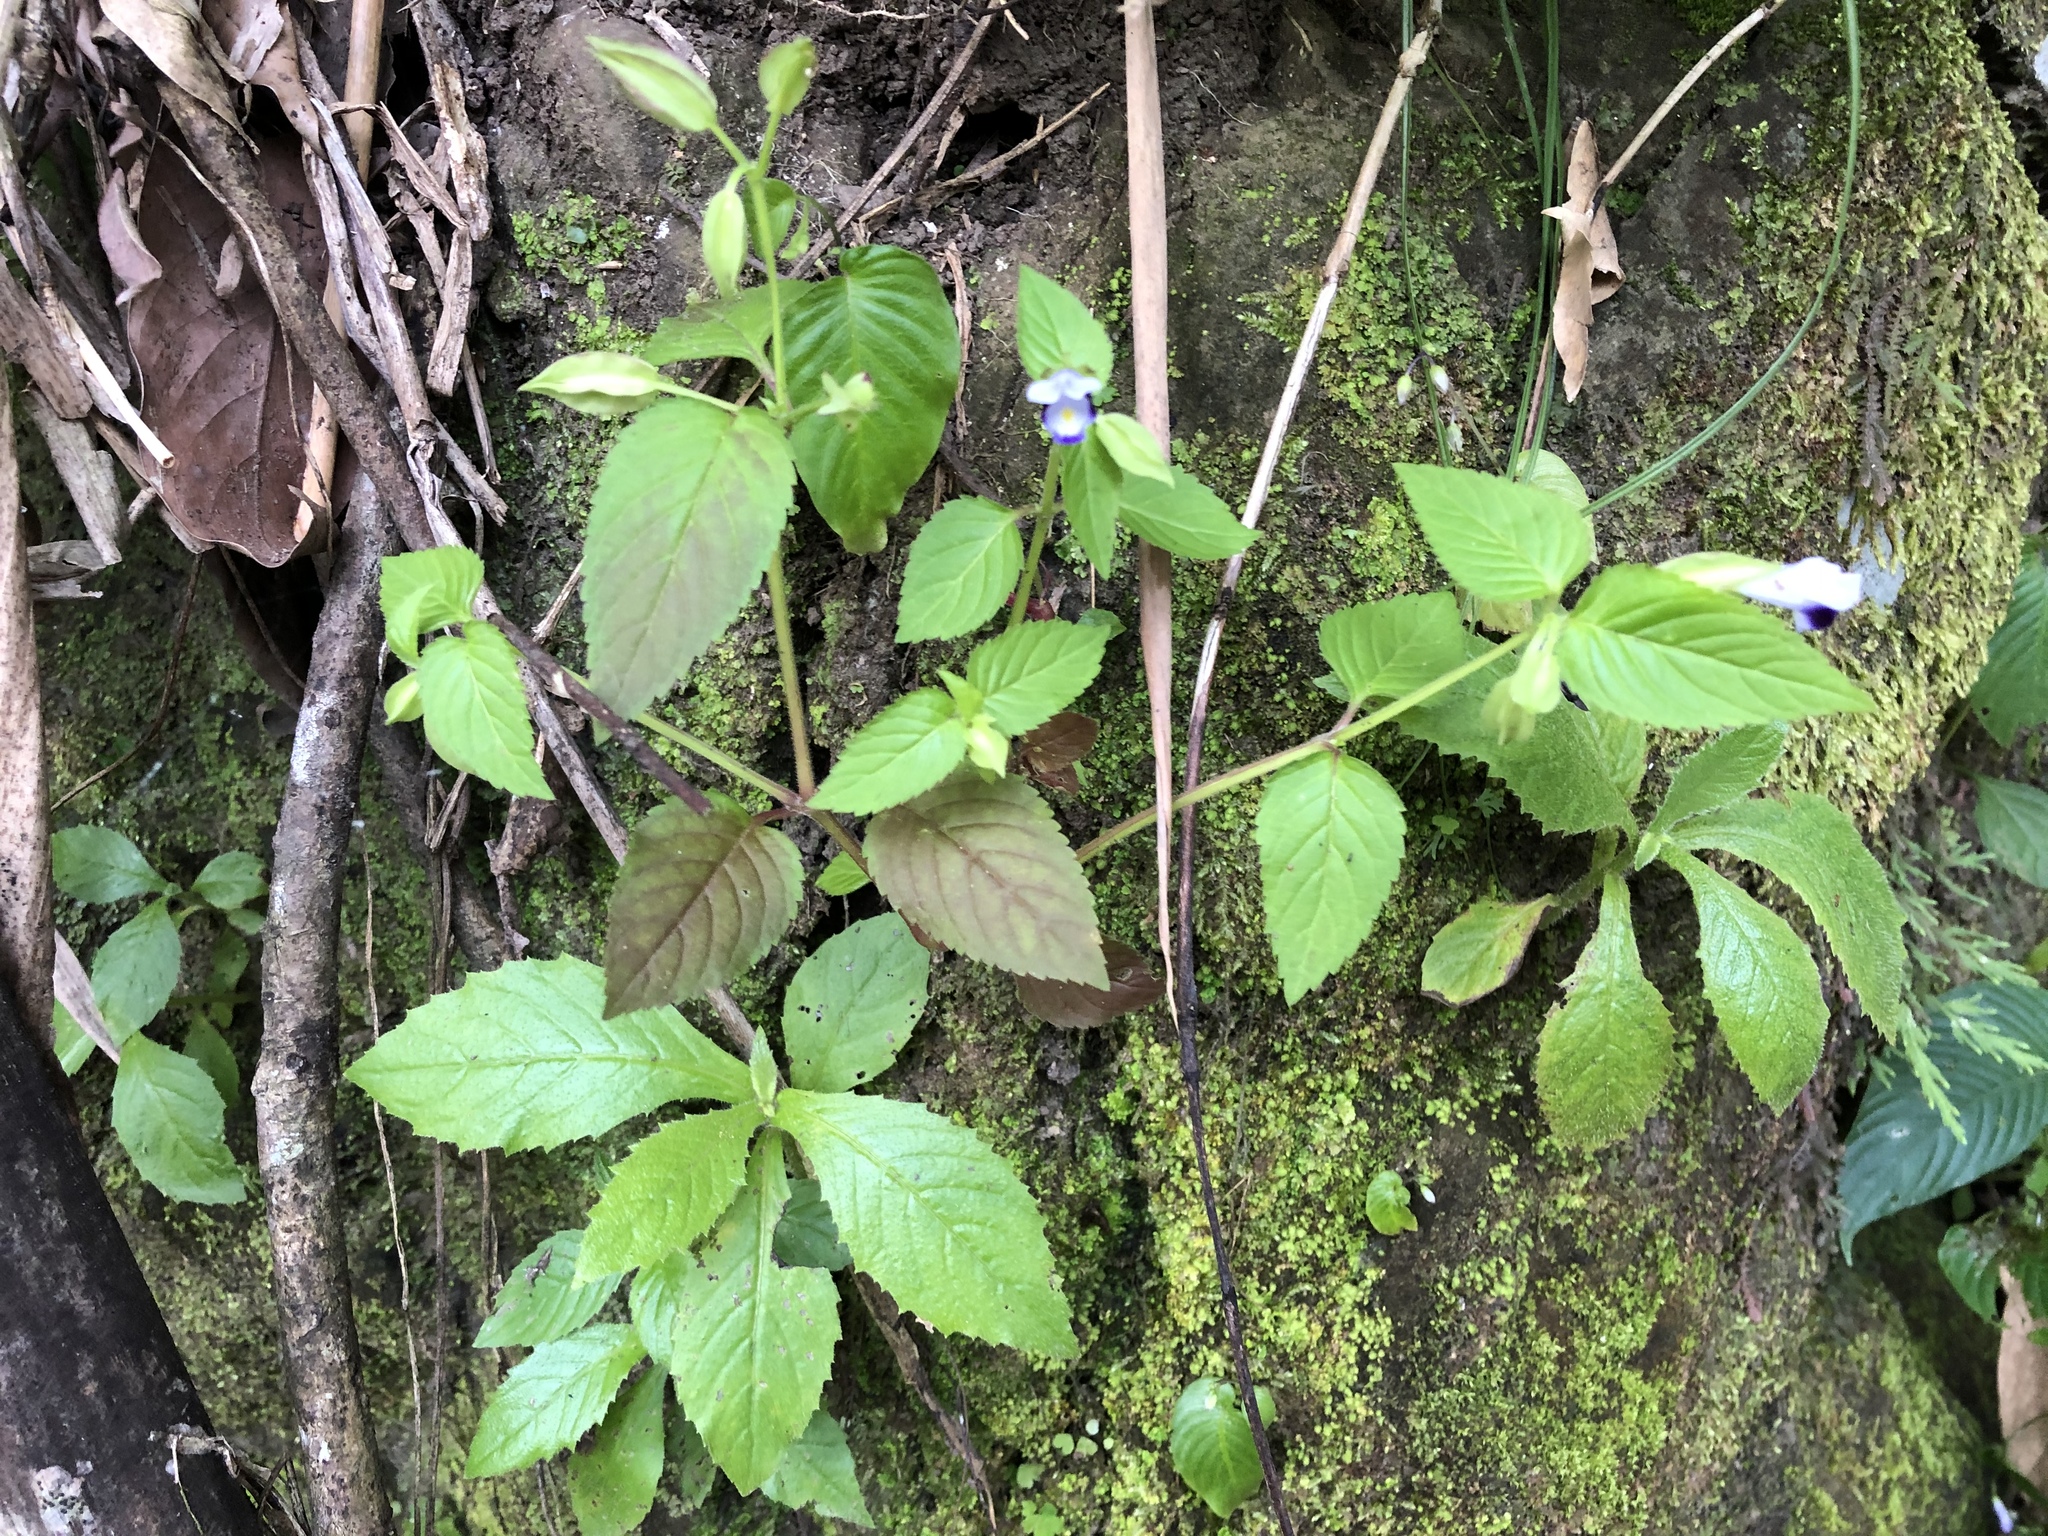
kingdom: Plantae
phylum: Tracheophyta
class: Magnoliopsida
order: Lamiales
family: Linderniaceae
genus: Torenia
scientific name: Torenia violacea
